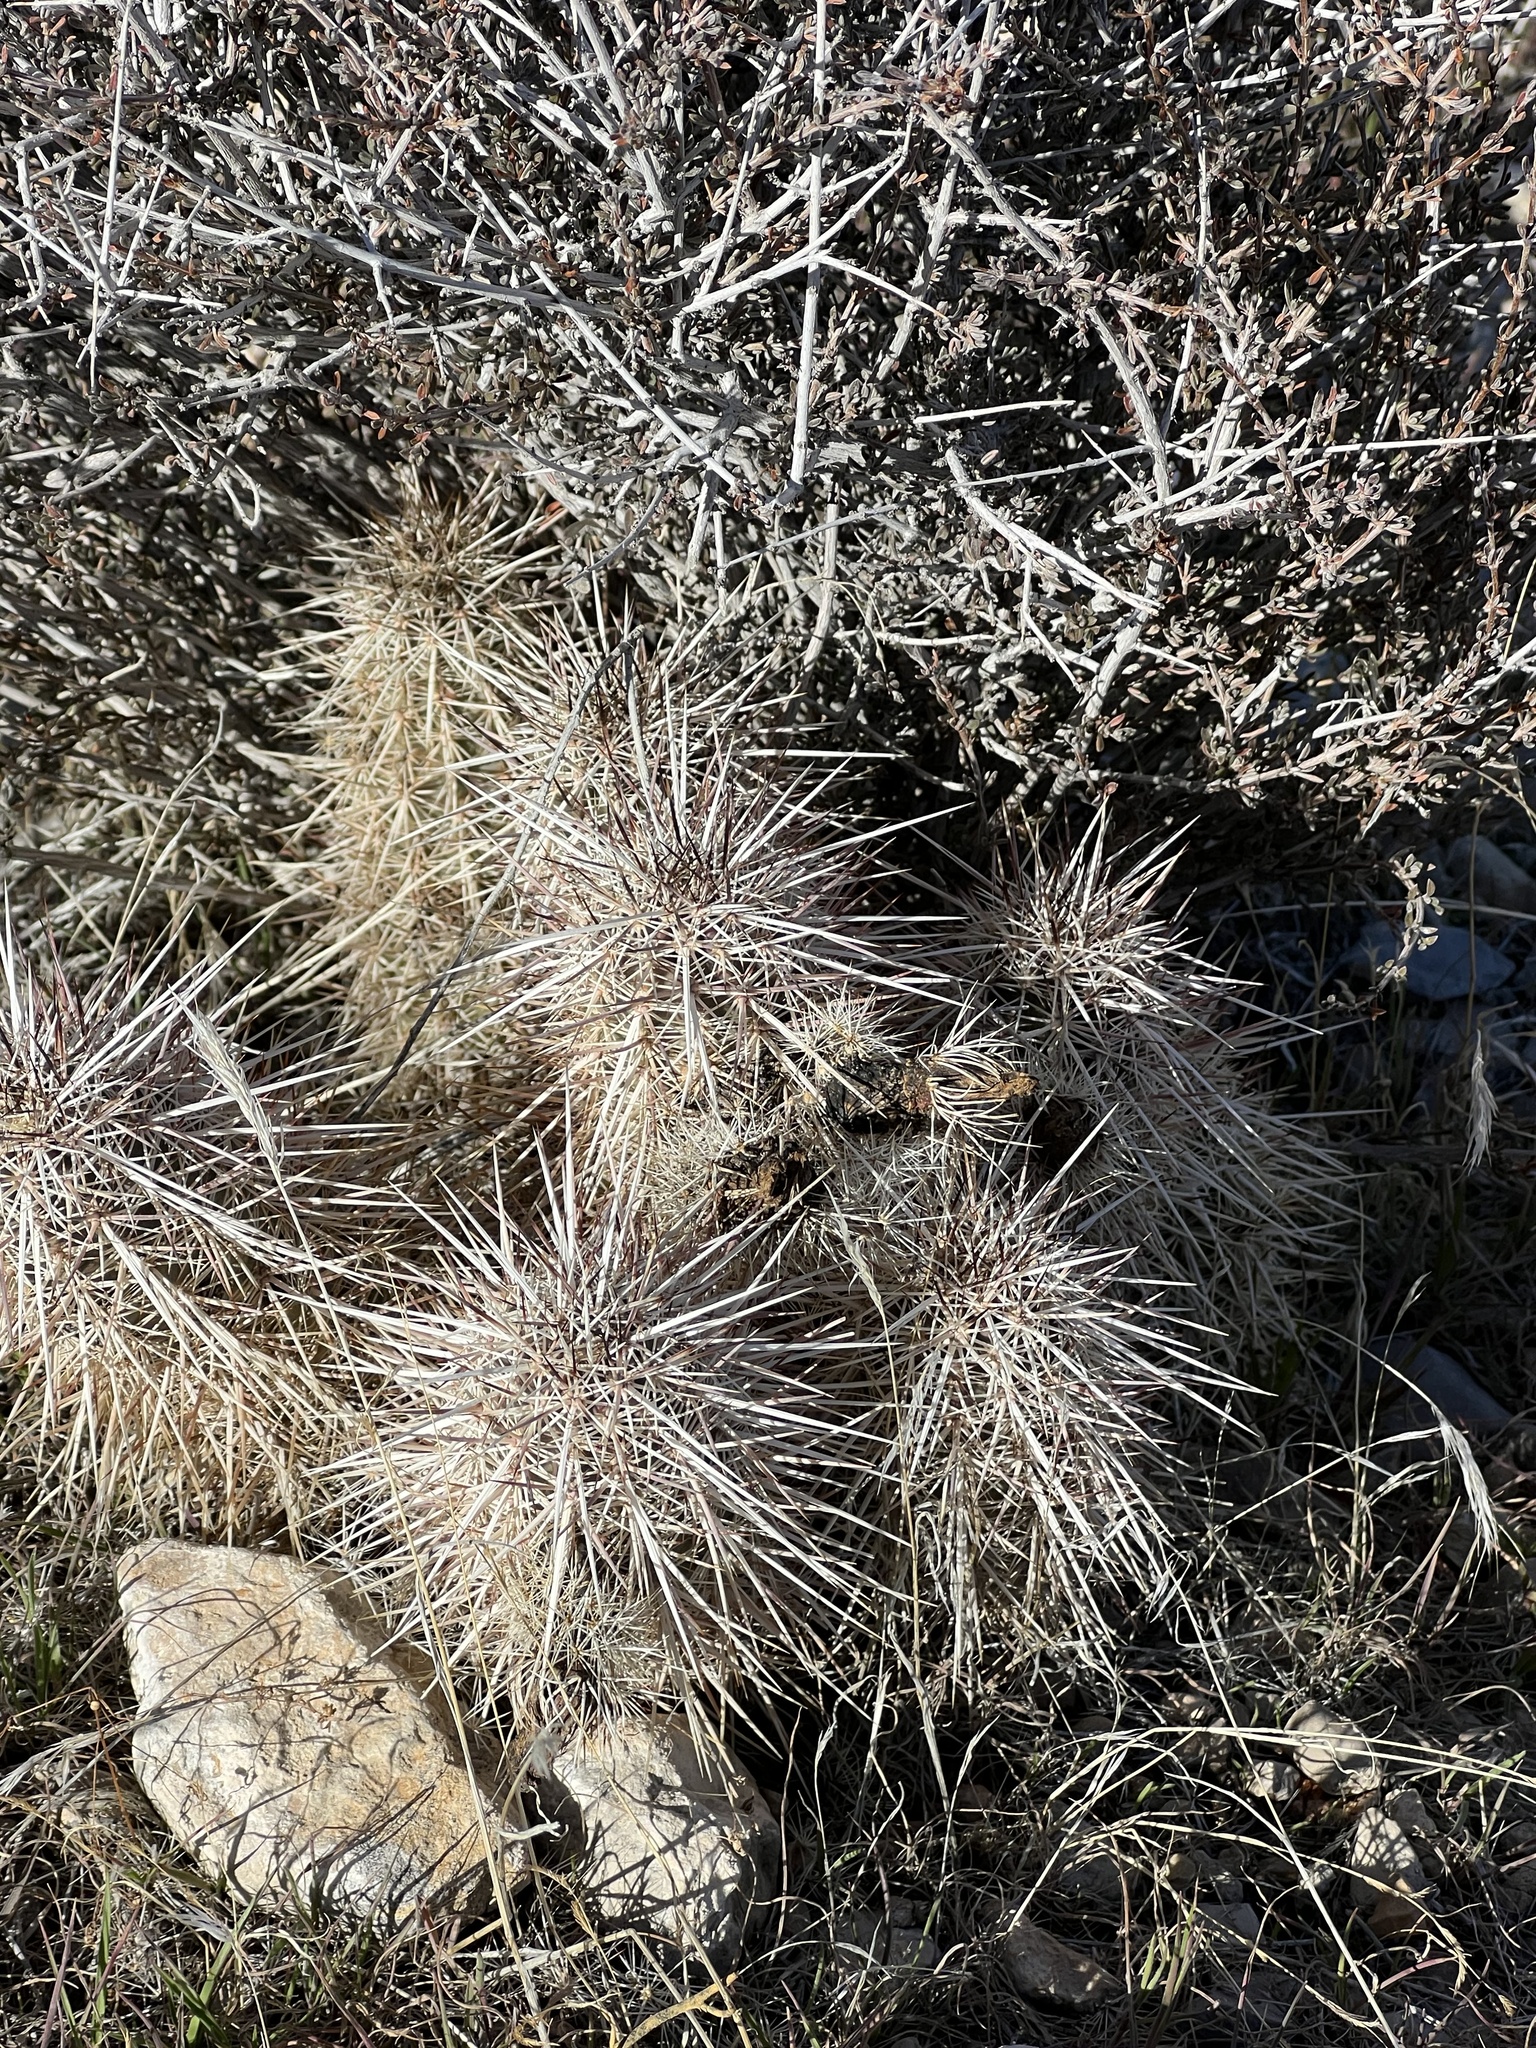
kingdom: Plantae
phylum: Tracheophyta
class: Magnoliopsida
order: Caryophyllales
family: Cactaceae
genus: Echinocereus
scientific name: Echinocereus engelmannii
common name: Engelmann's hedgehog cactus
